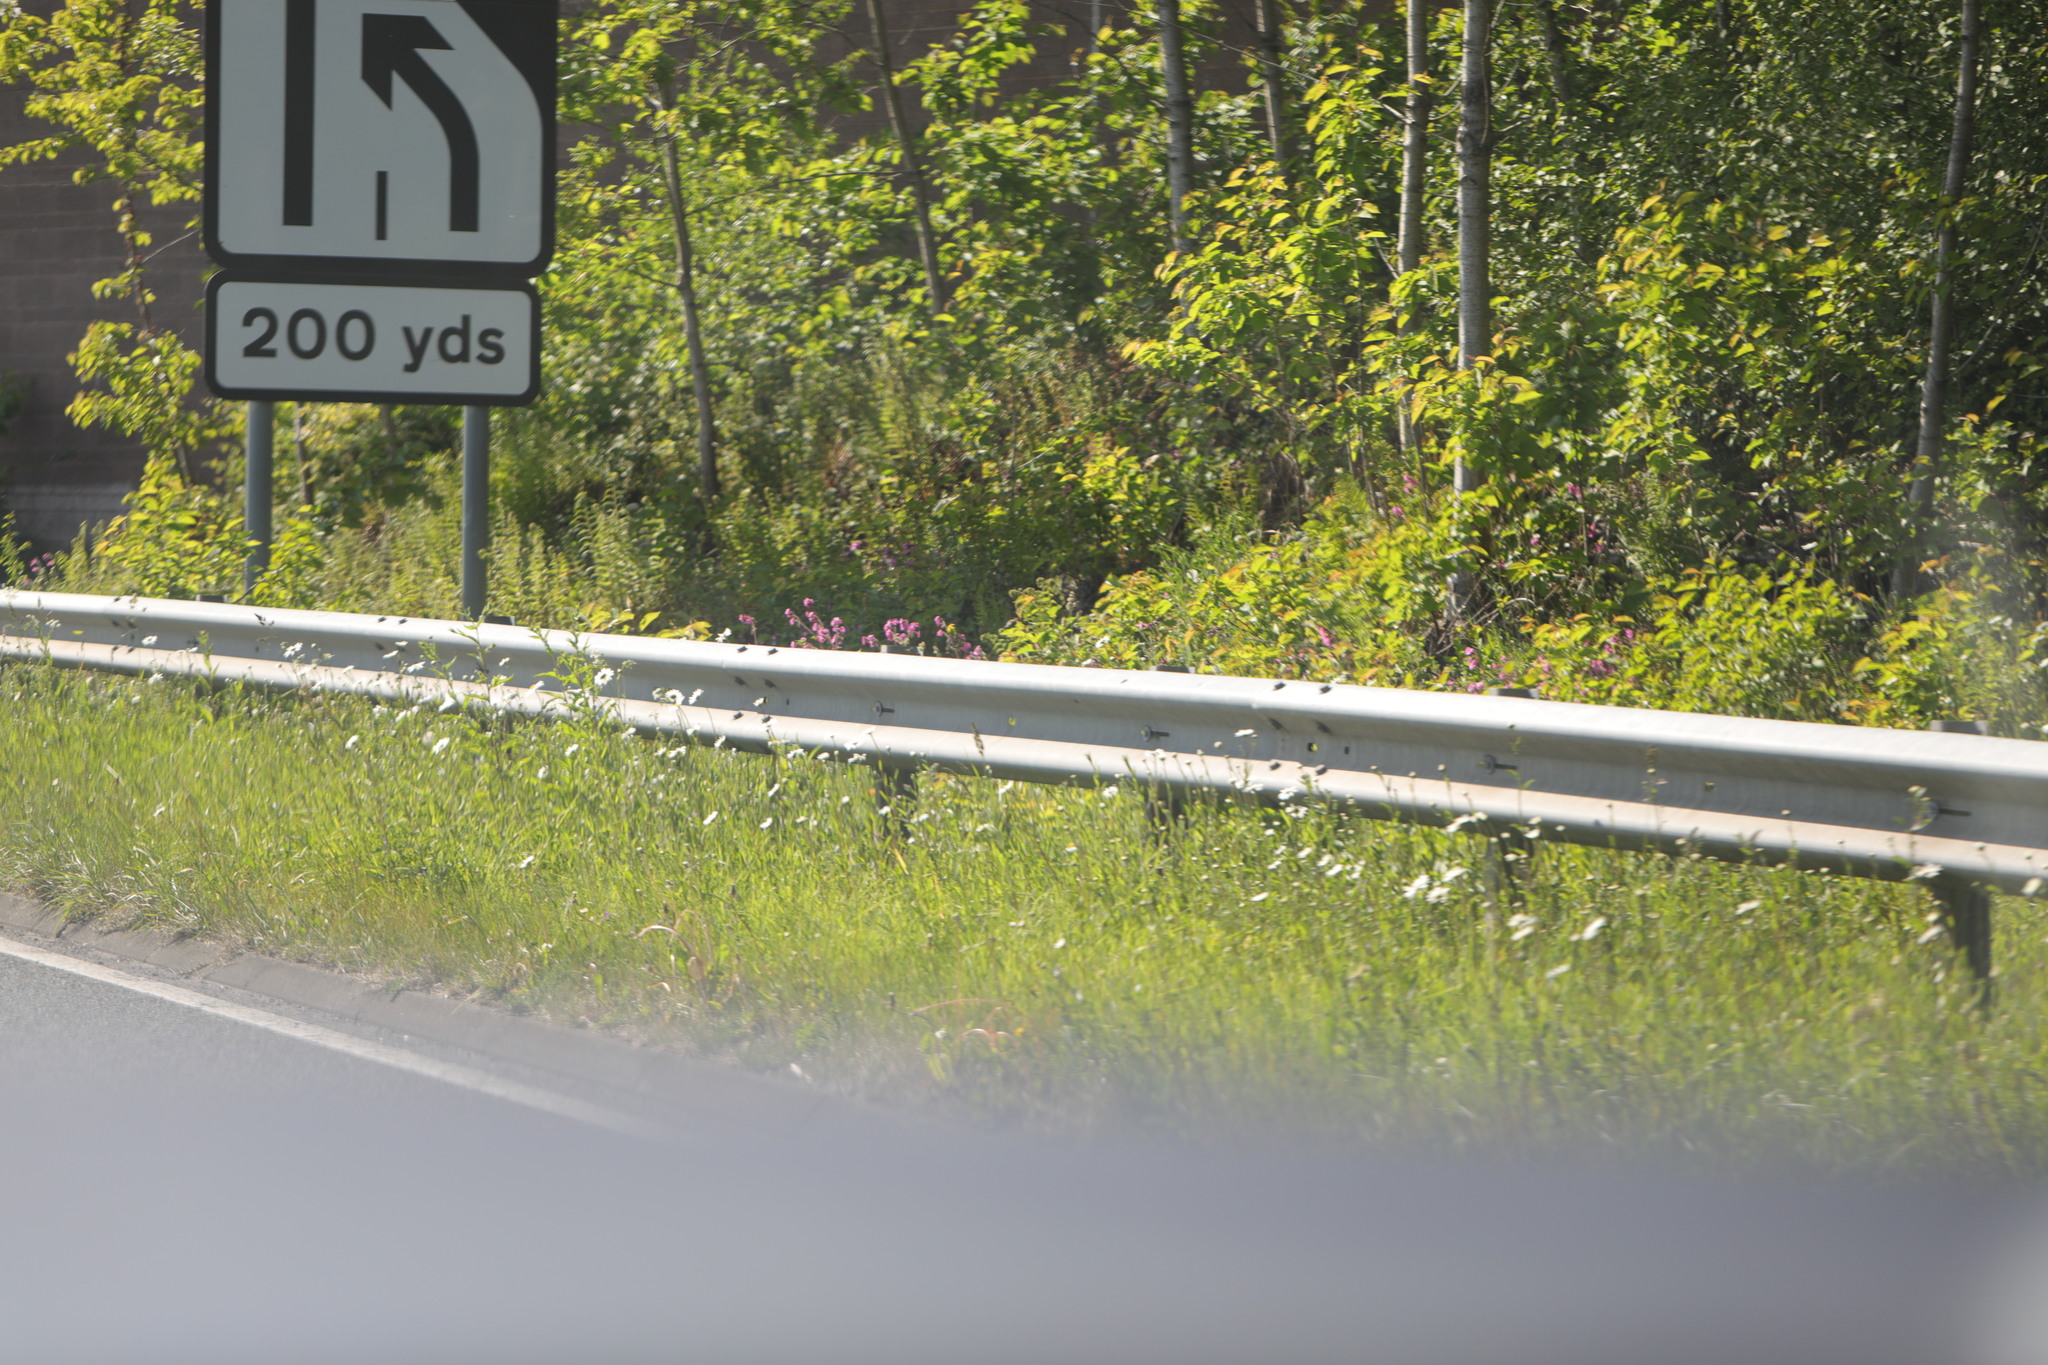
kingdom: Plantae
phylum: Tracheophyta
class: Magnoliopsida
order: Asterales
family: Asteraceae
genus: Leucanthemum
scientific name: Leucanthemum vulgare
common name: Oxeye daisy
